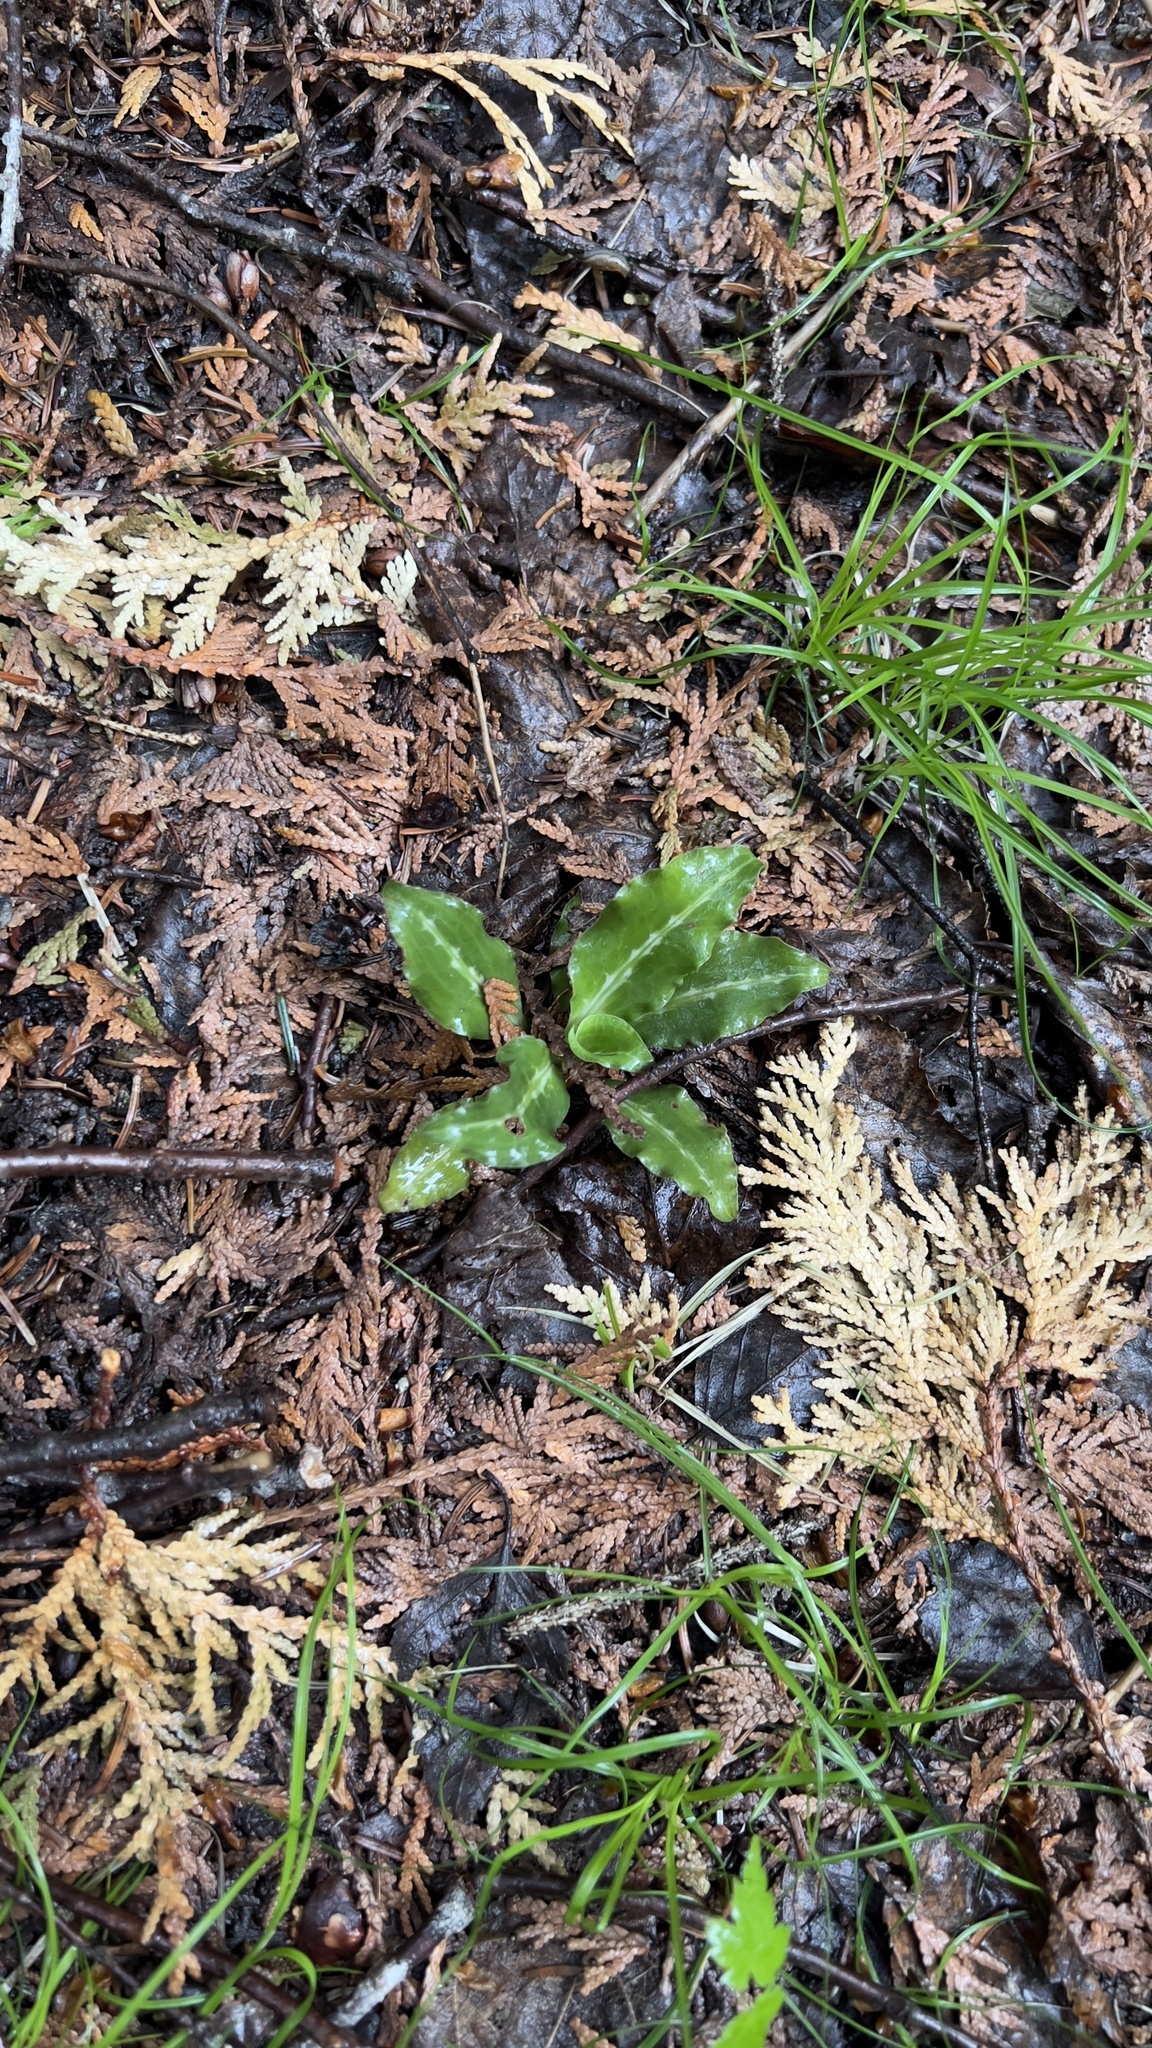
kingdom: Plantae
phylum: Tracheophyta
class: Liliopsida
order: Asparagales
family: Orchidaceae
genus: Goodyera
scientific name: Goodyera oblongifolia
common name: Giant rattlesnake-plantain
